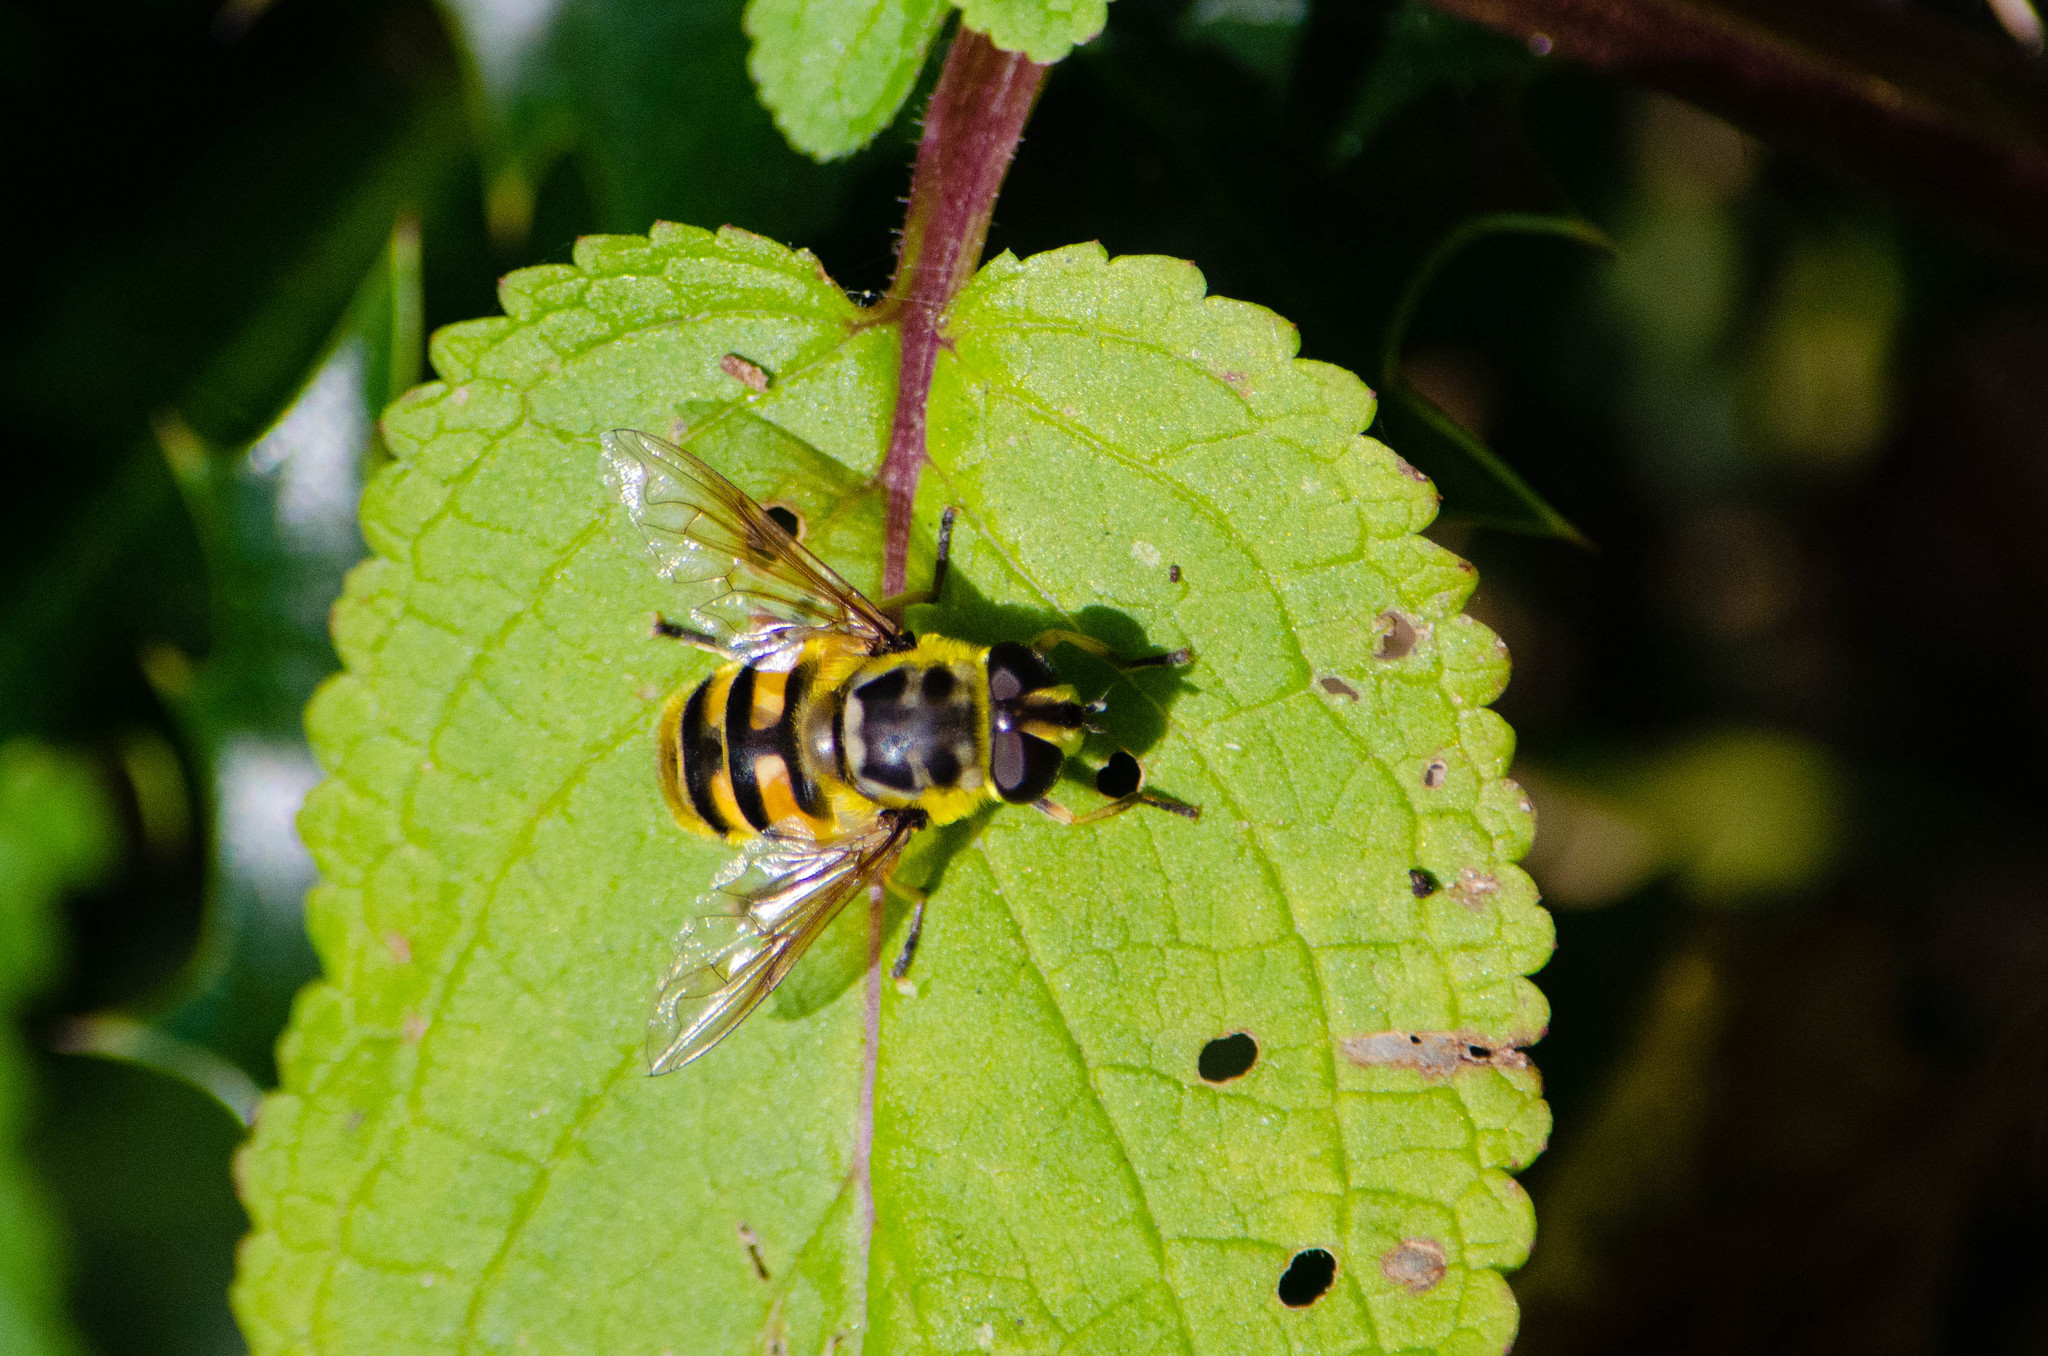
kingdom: Animalia
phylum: Arthropoda
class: Insecta
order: Diptera
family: Syrphidae
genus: Myathropa
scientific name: Myathropa florea
